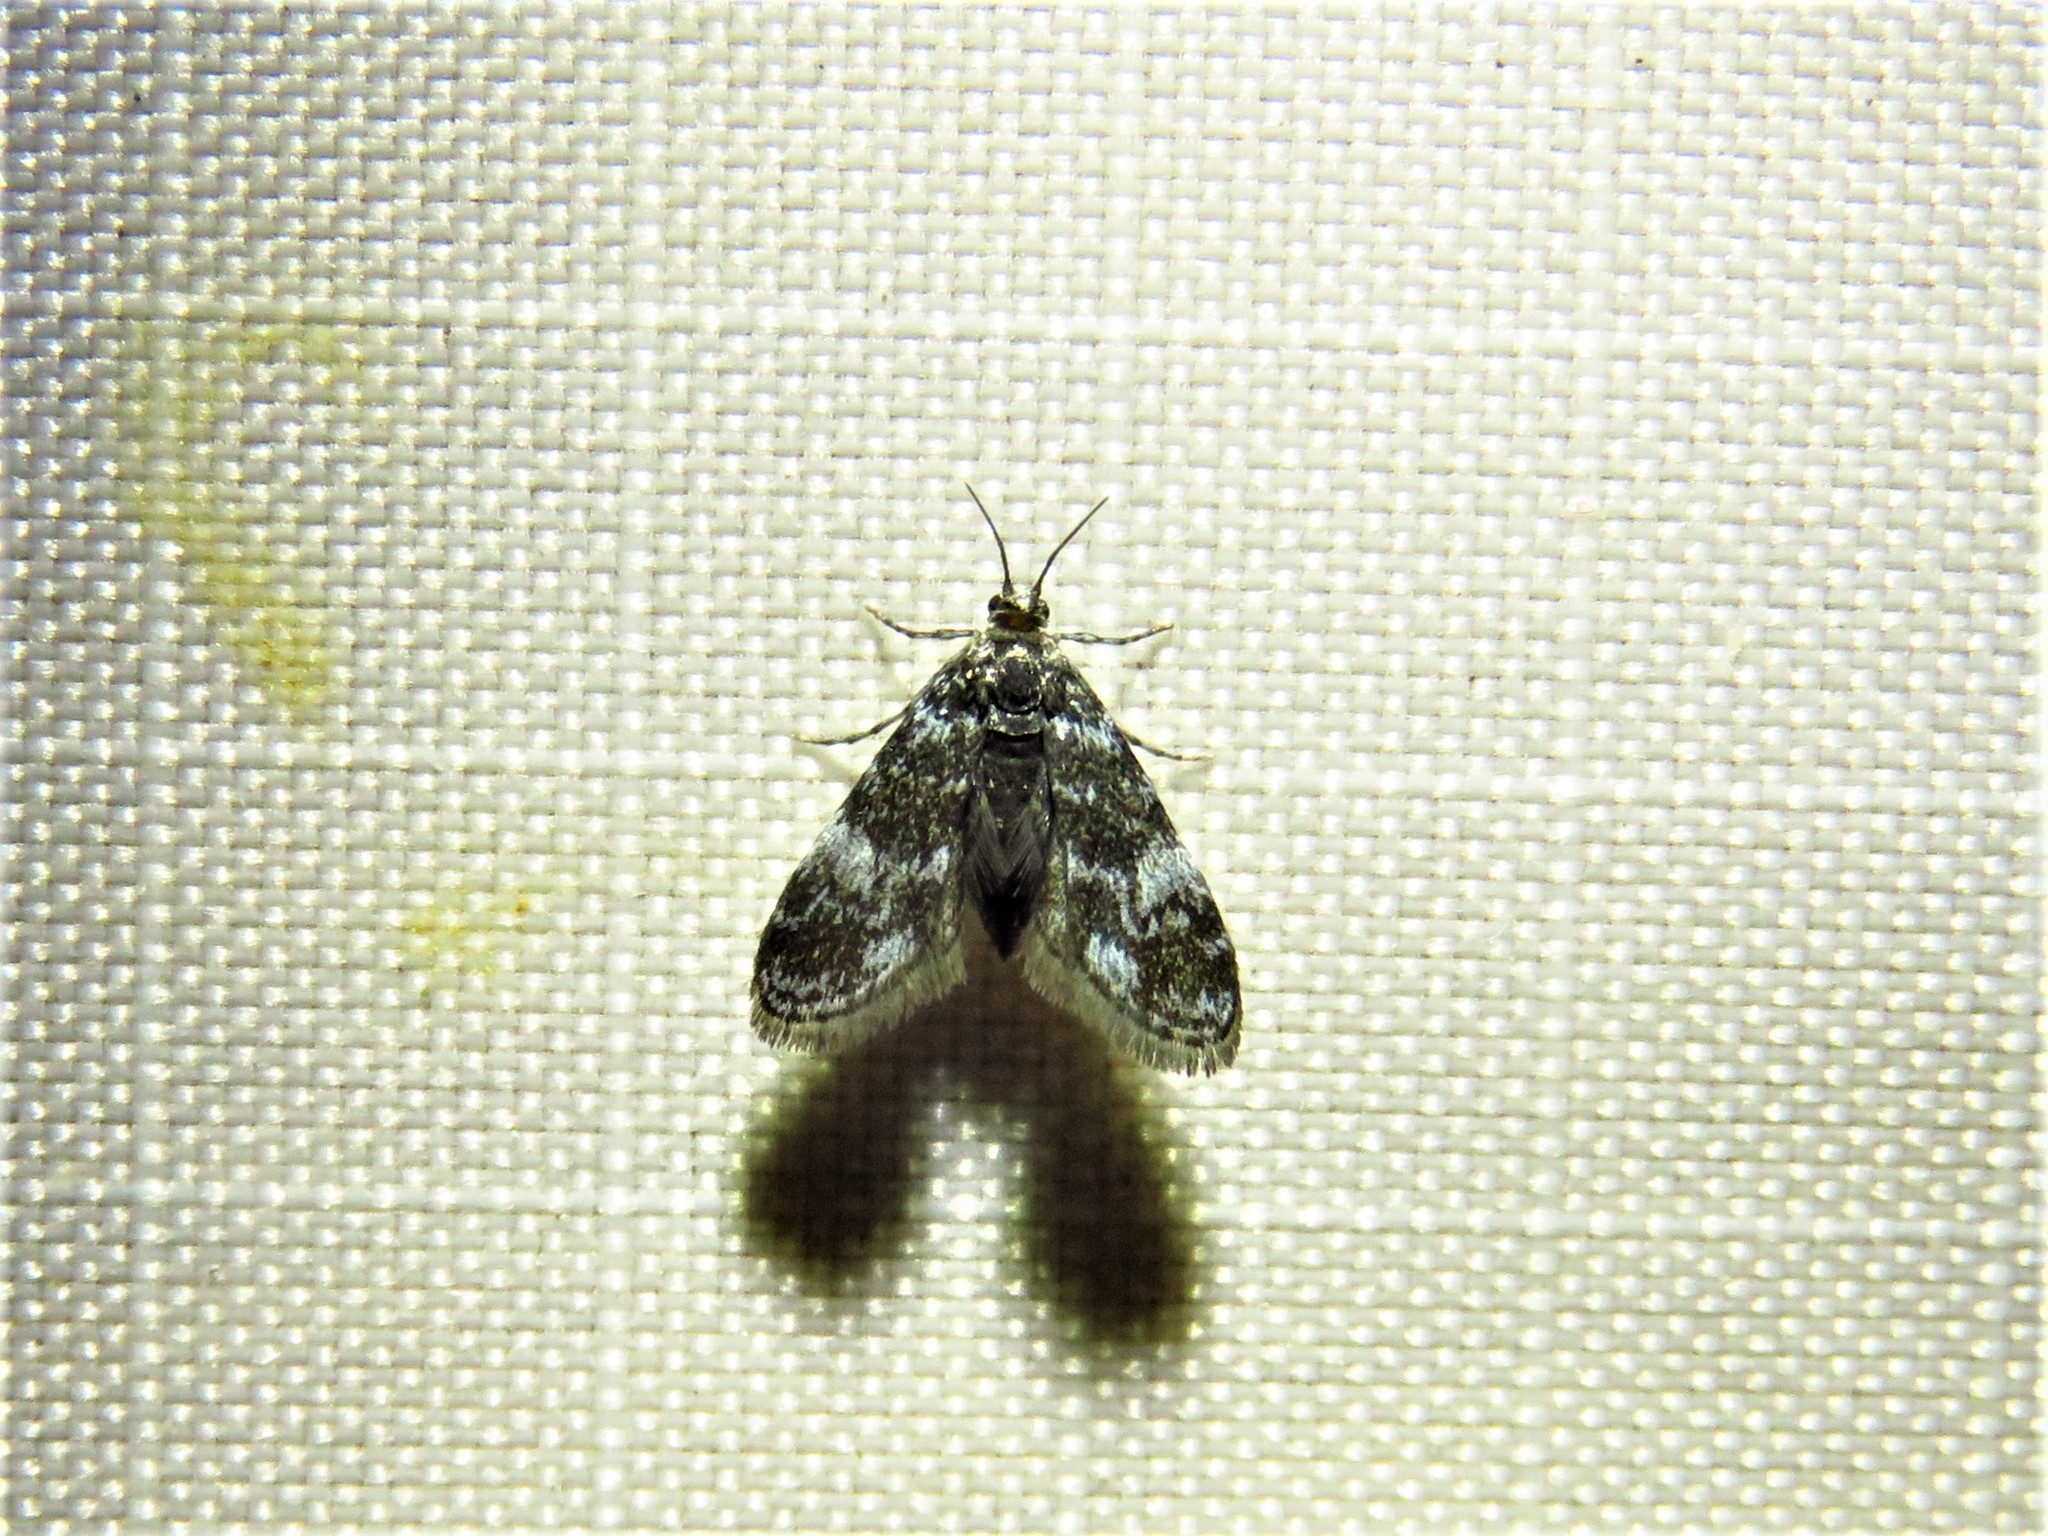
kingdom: Animalia
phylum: Arthropoda
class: Insecta
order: Lepidoptera
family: Crambidae
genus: Elophila
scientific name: Elophila tinealis
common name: Black duckweed moth
